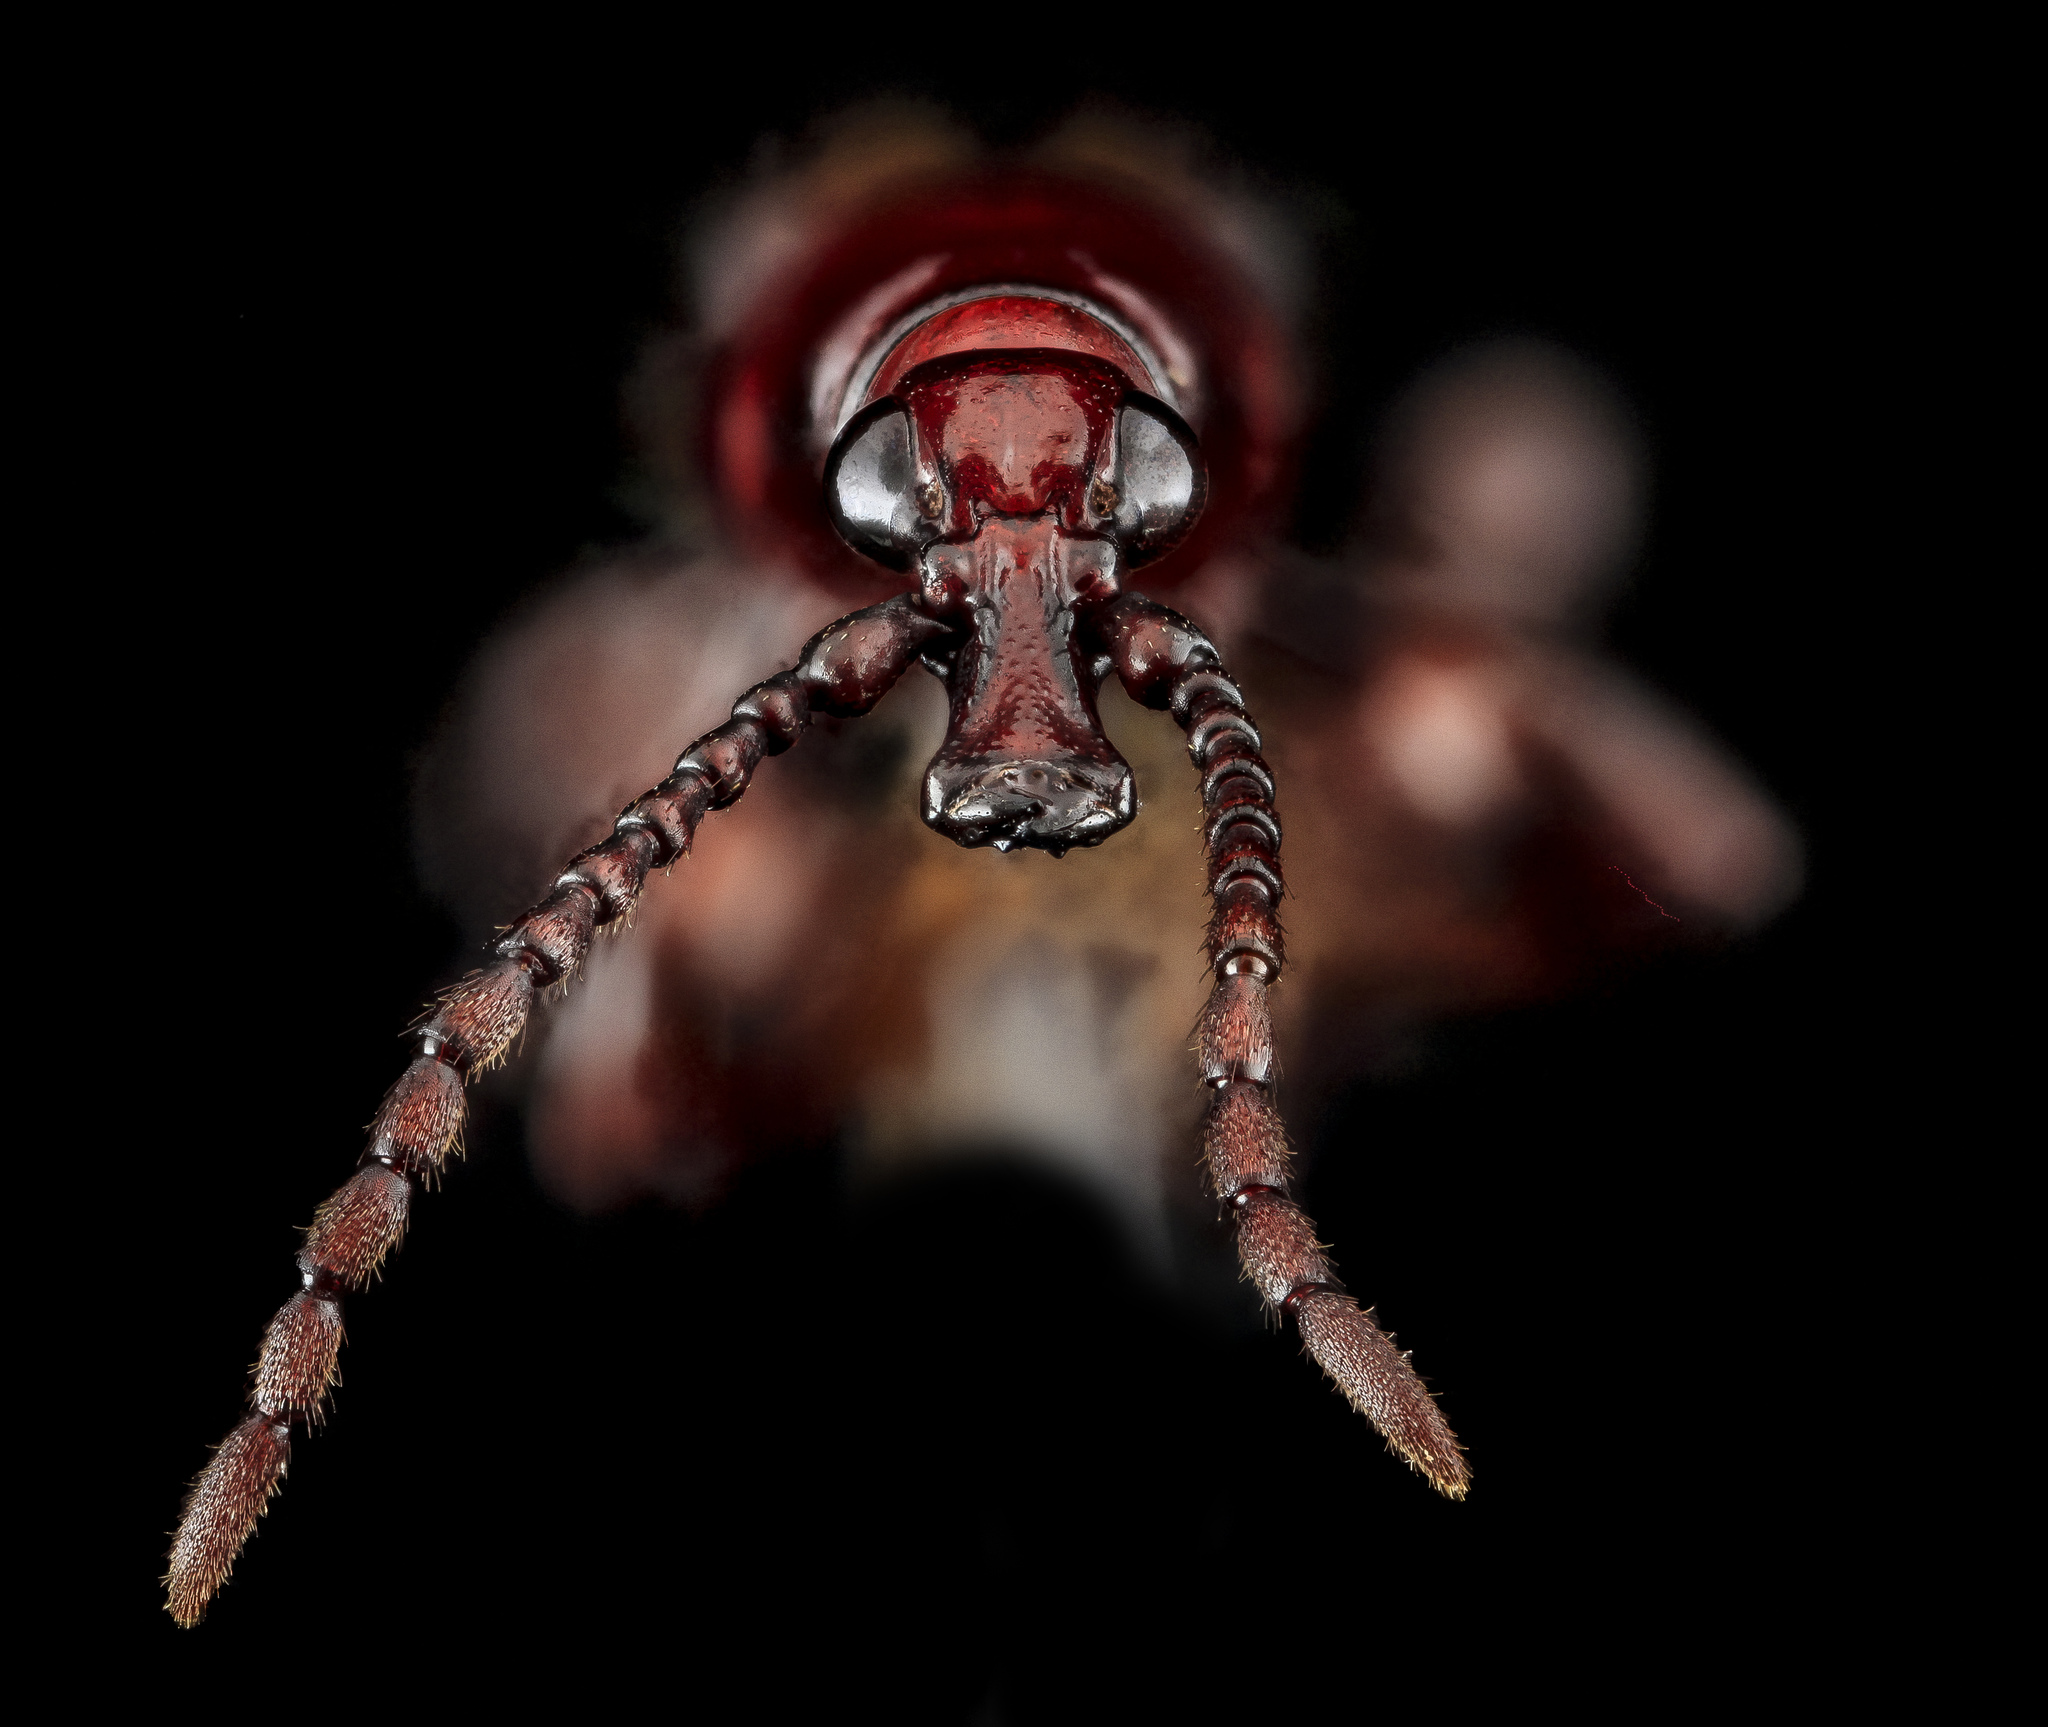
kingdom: Animalia
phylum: Arthropoda
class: Insecta
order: Coleoptera
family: Brentidae
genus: Arrenodes
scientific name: Arrenodes minutus
